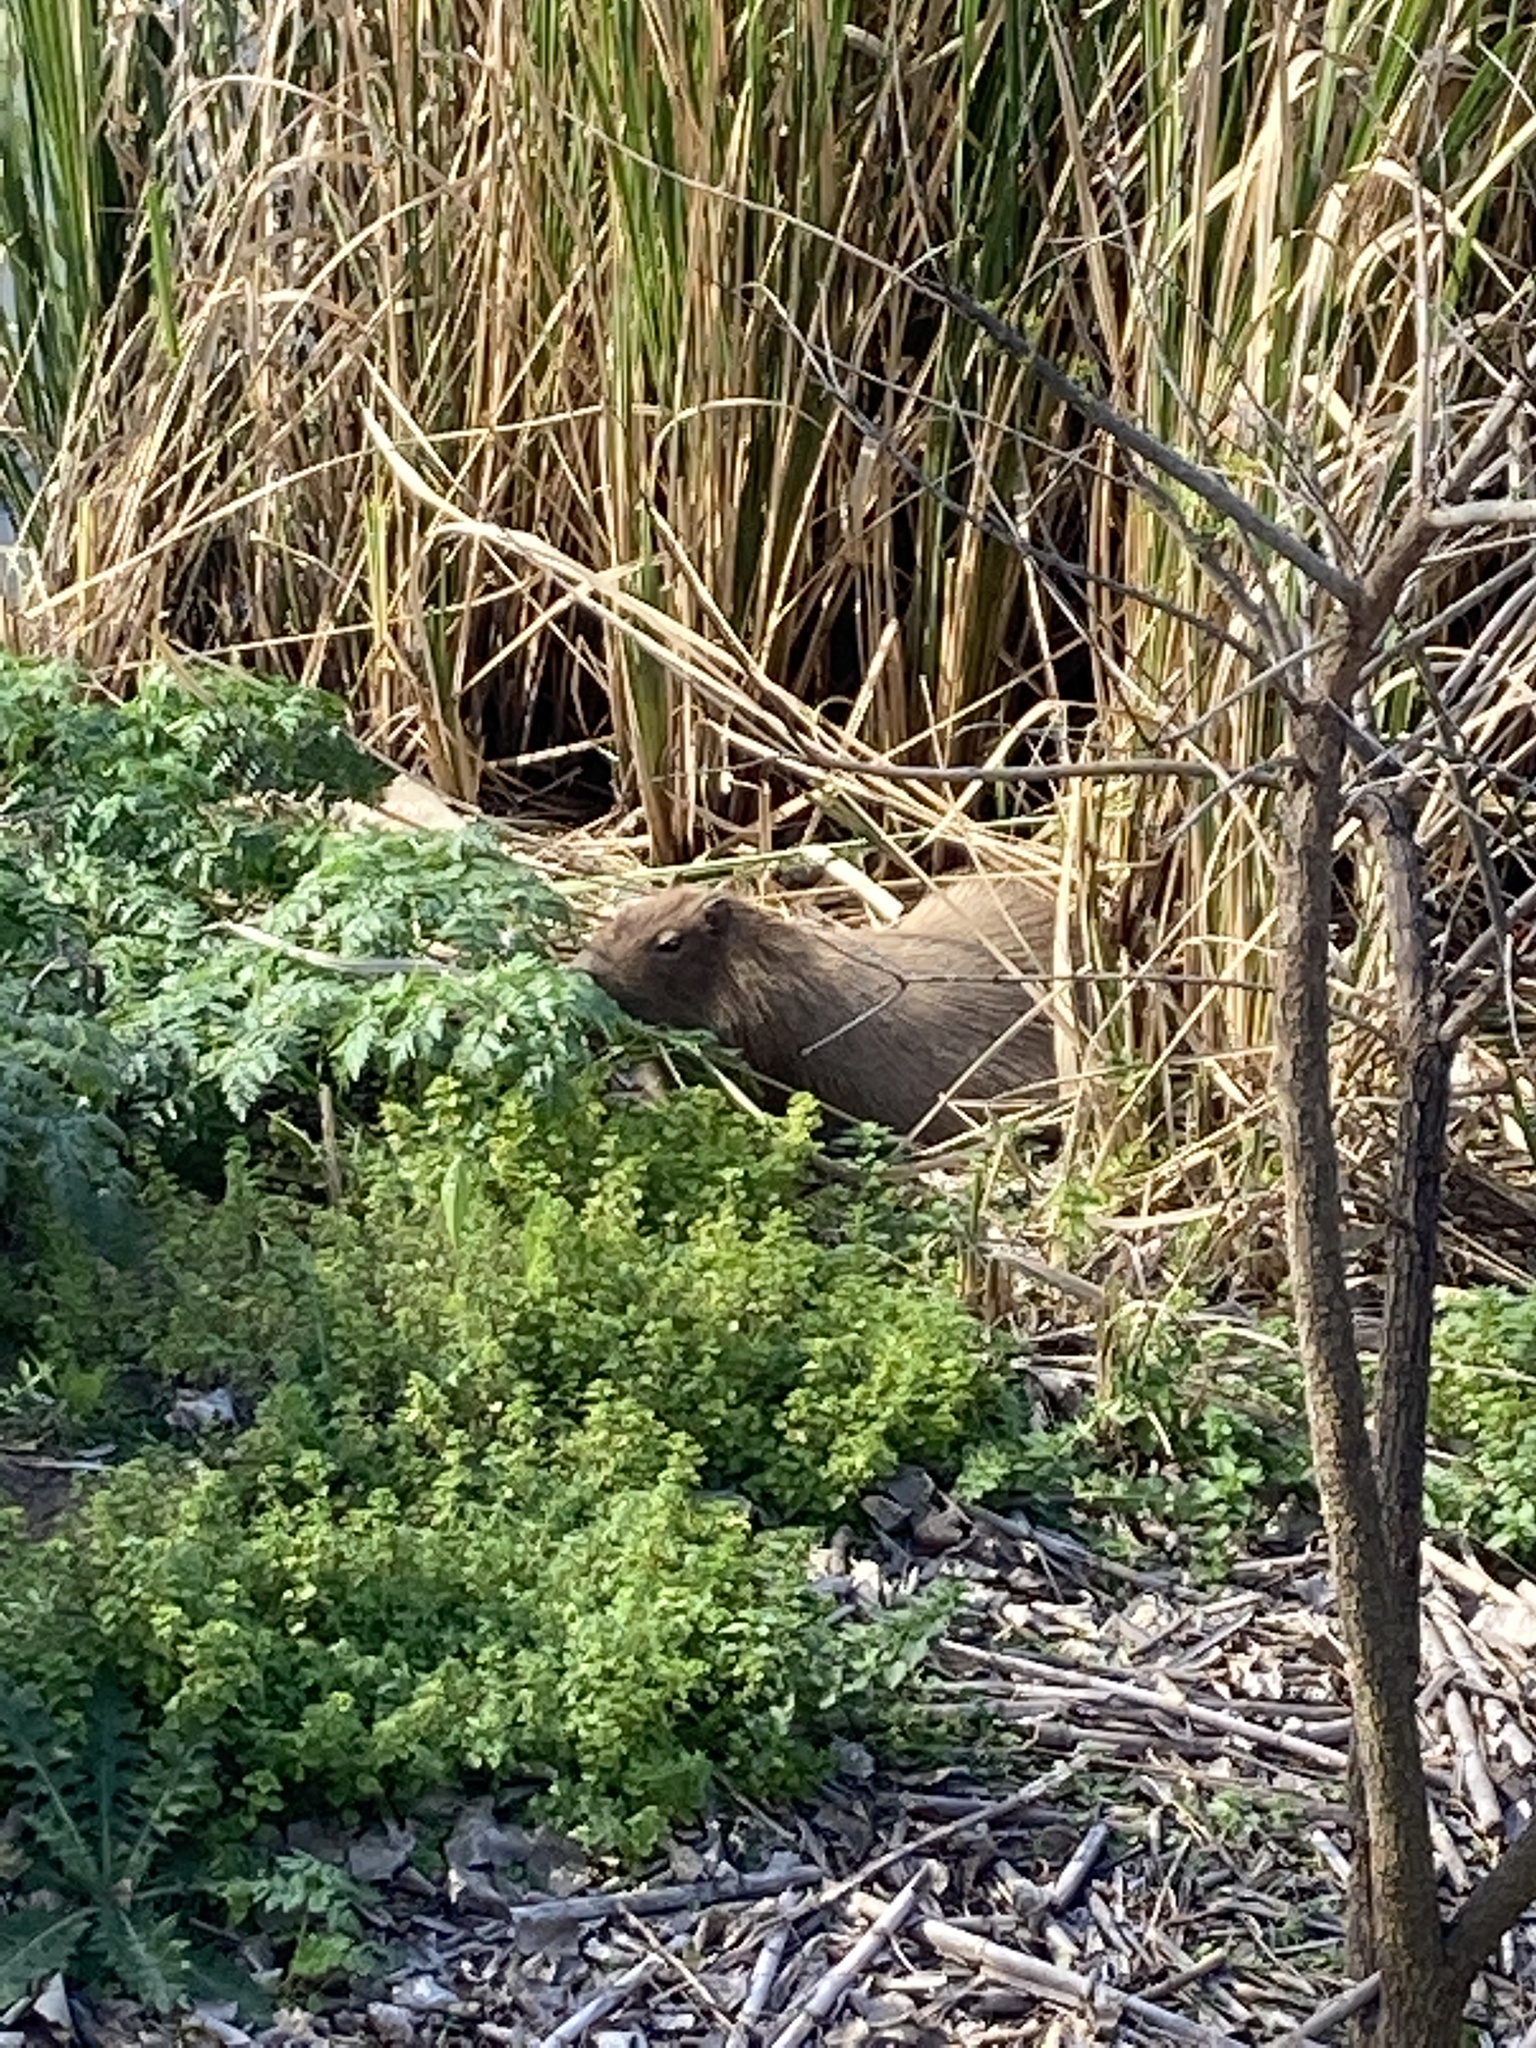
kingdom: Animalia
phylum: Chordata
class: Mammalia
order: Rodentia
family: Caviidae
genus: Hydrochoerus
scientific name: Hydrochoerus hydrochaeris
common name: Capybara
